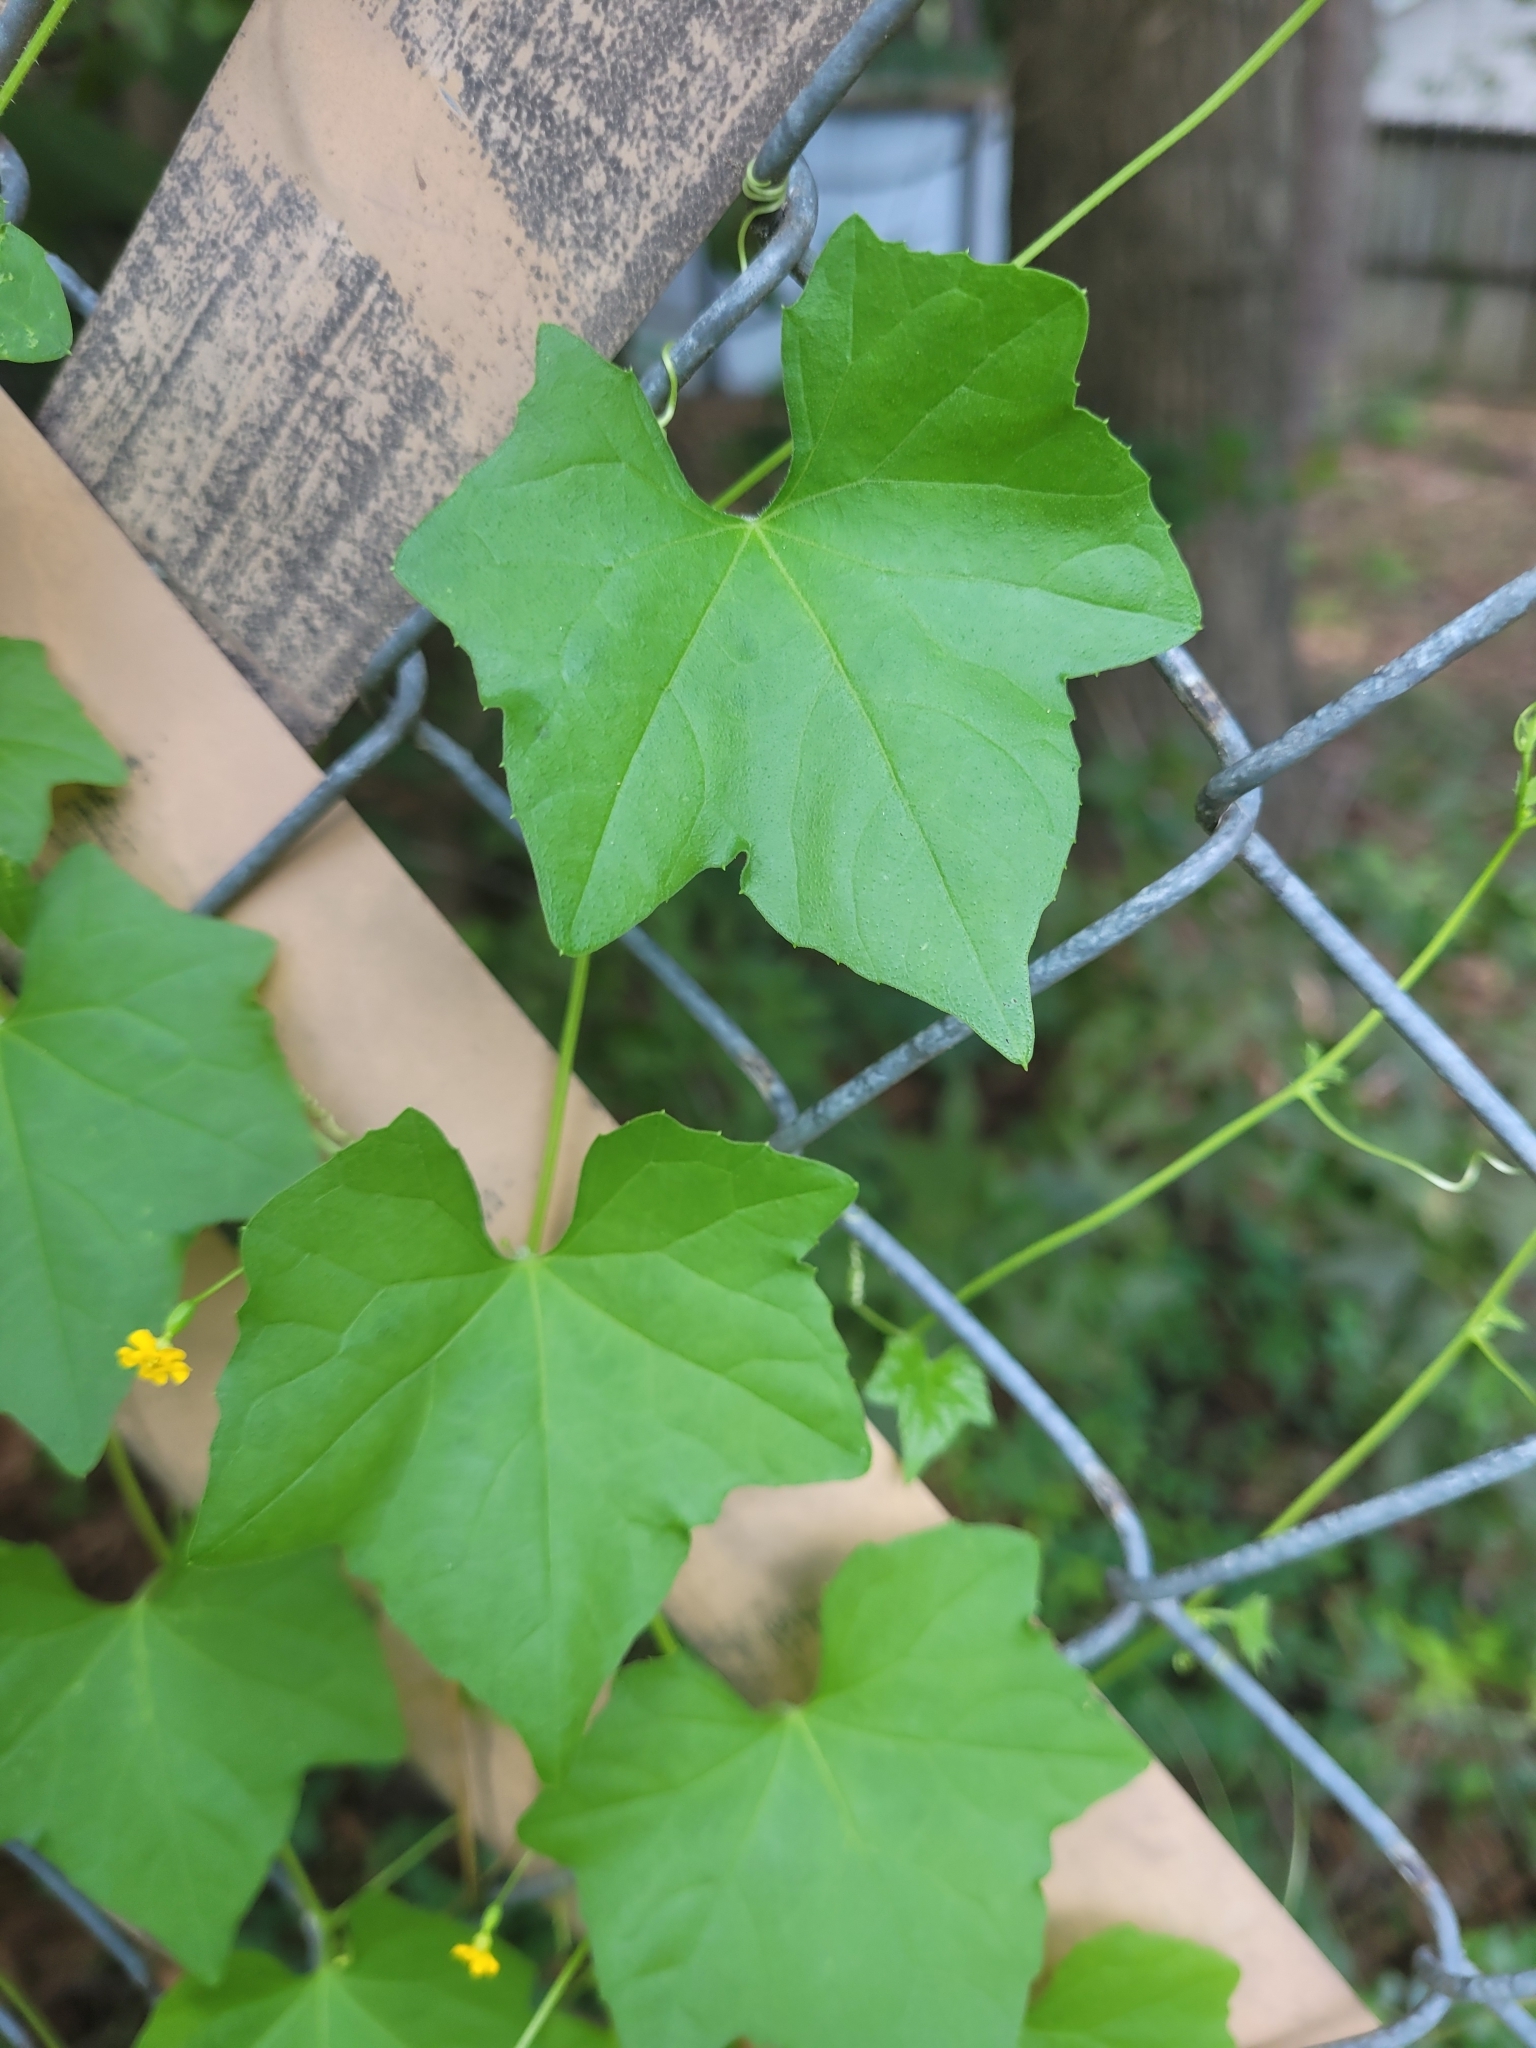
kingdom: Plantae
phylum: Tracheophyta
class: Magnoliopsida
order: Cucurbitales
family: Cucurbitaceae
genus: Melothria
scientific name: Melothria pendula
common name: Creeping-cucumber
